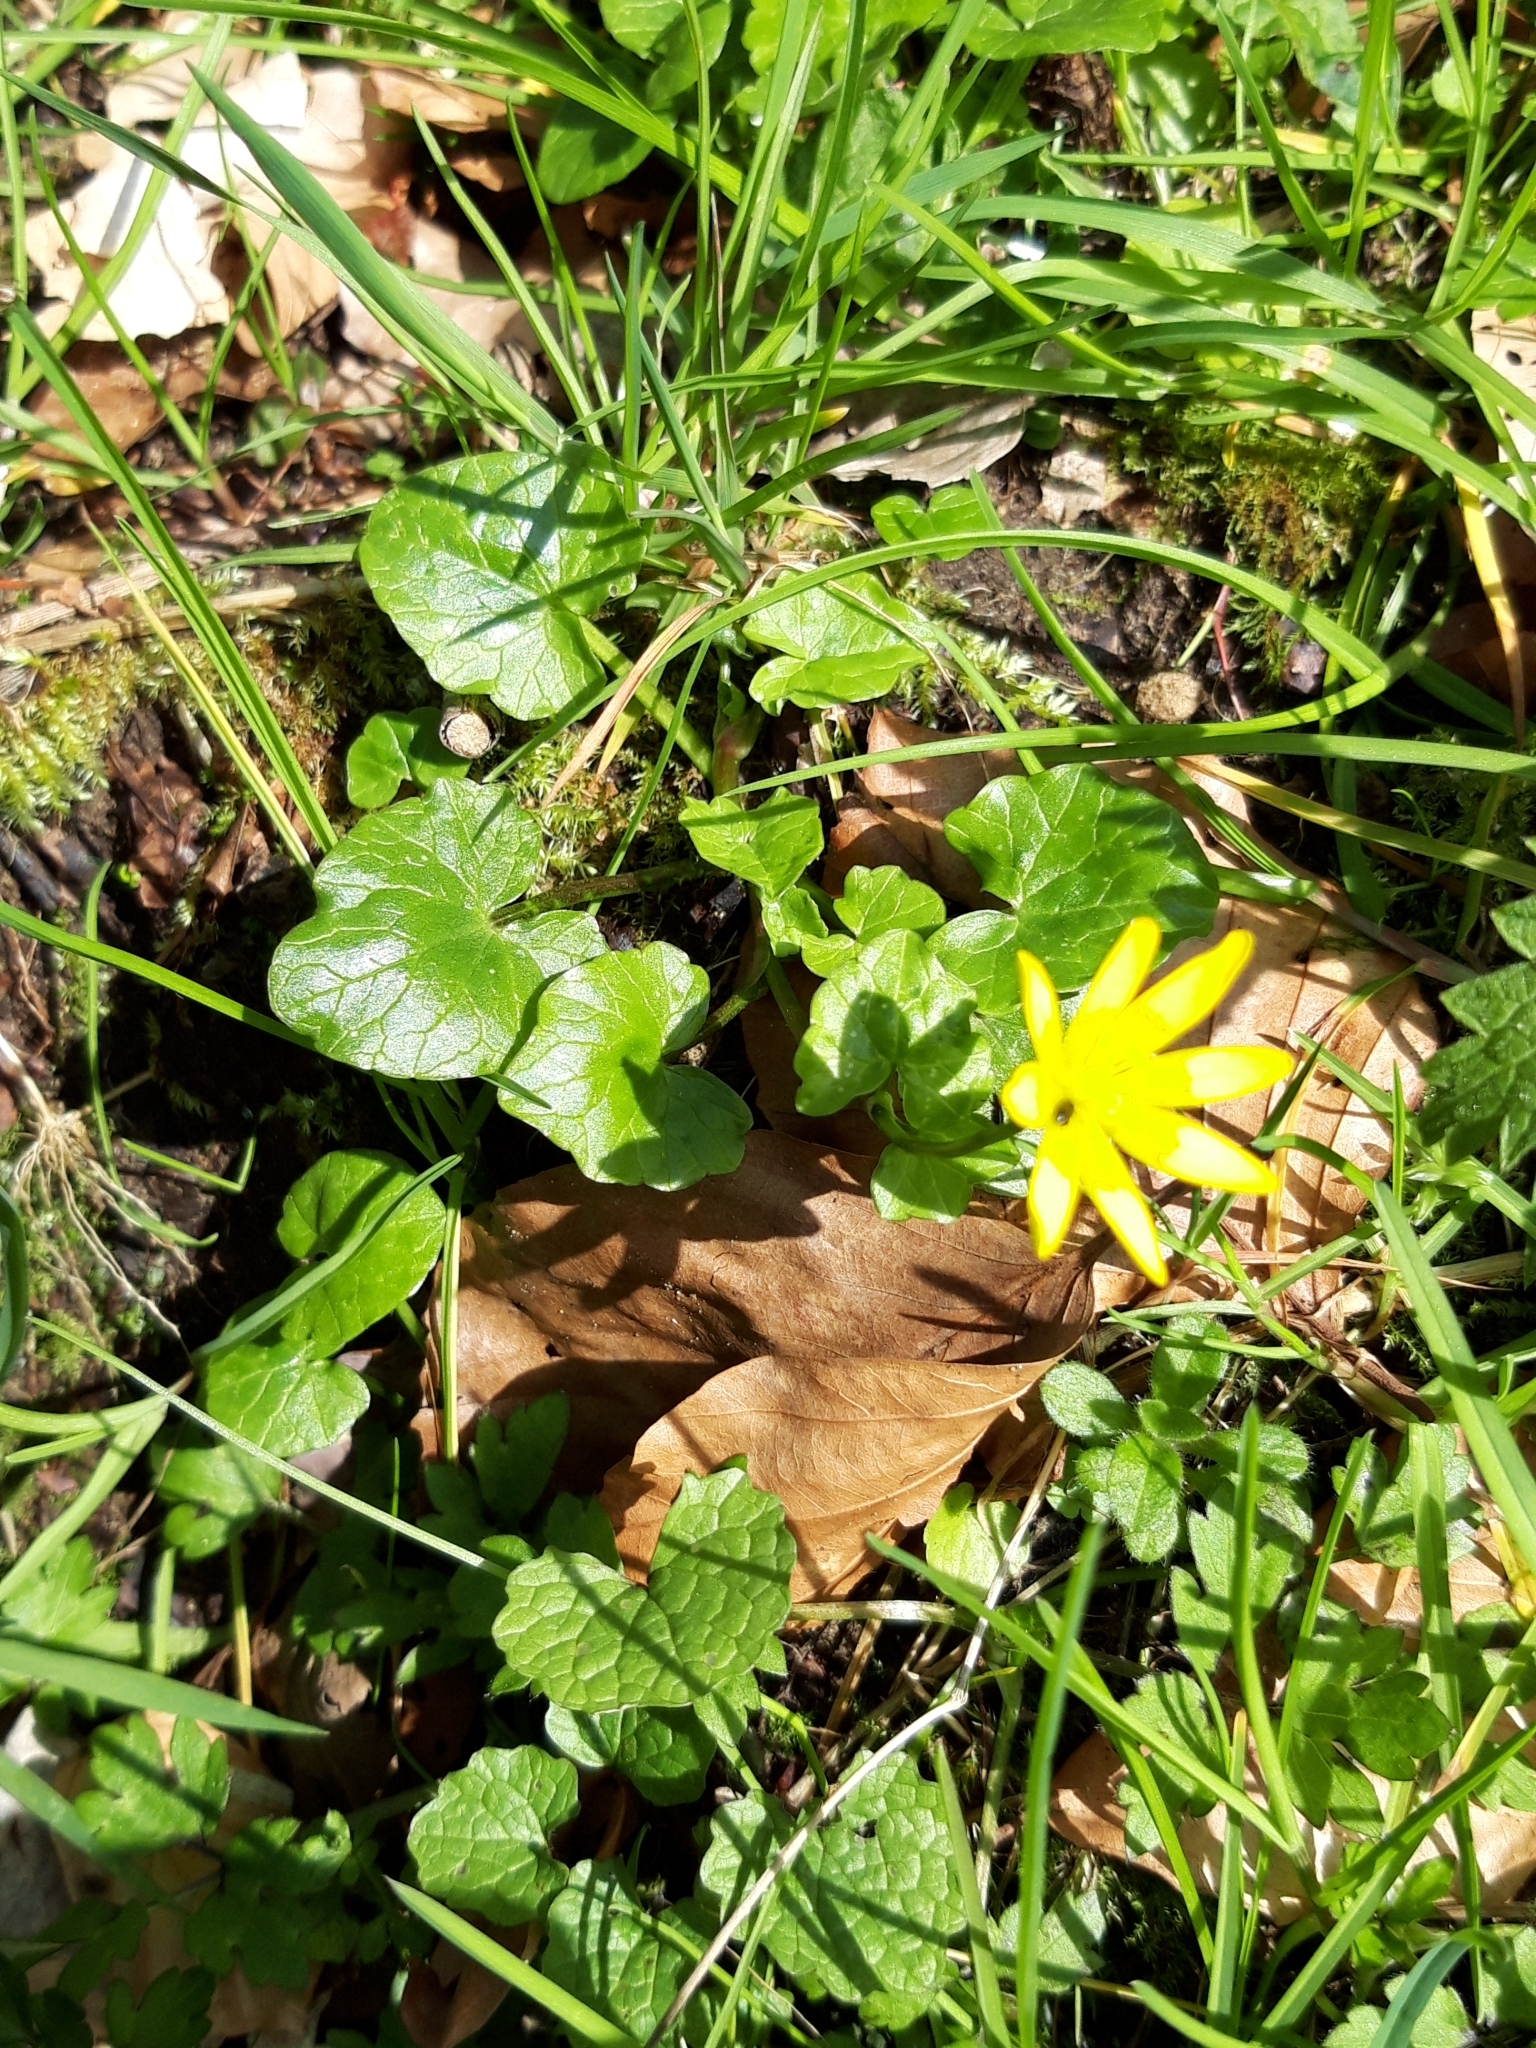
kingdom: Plantae
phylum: Tracheophyta
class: Magnoliopsida
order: Ranunculales
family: Ranunculaceae
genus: Ficaria
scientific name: Ficaria verna
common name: Lesser celandine
